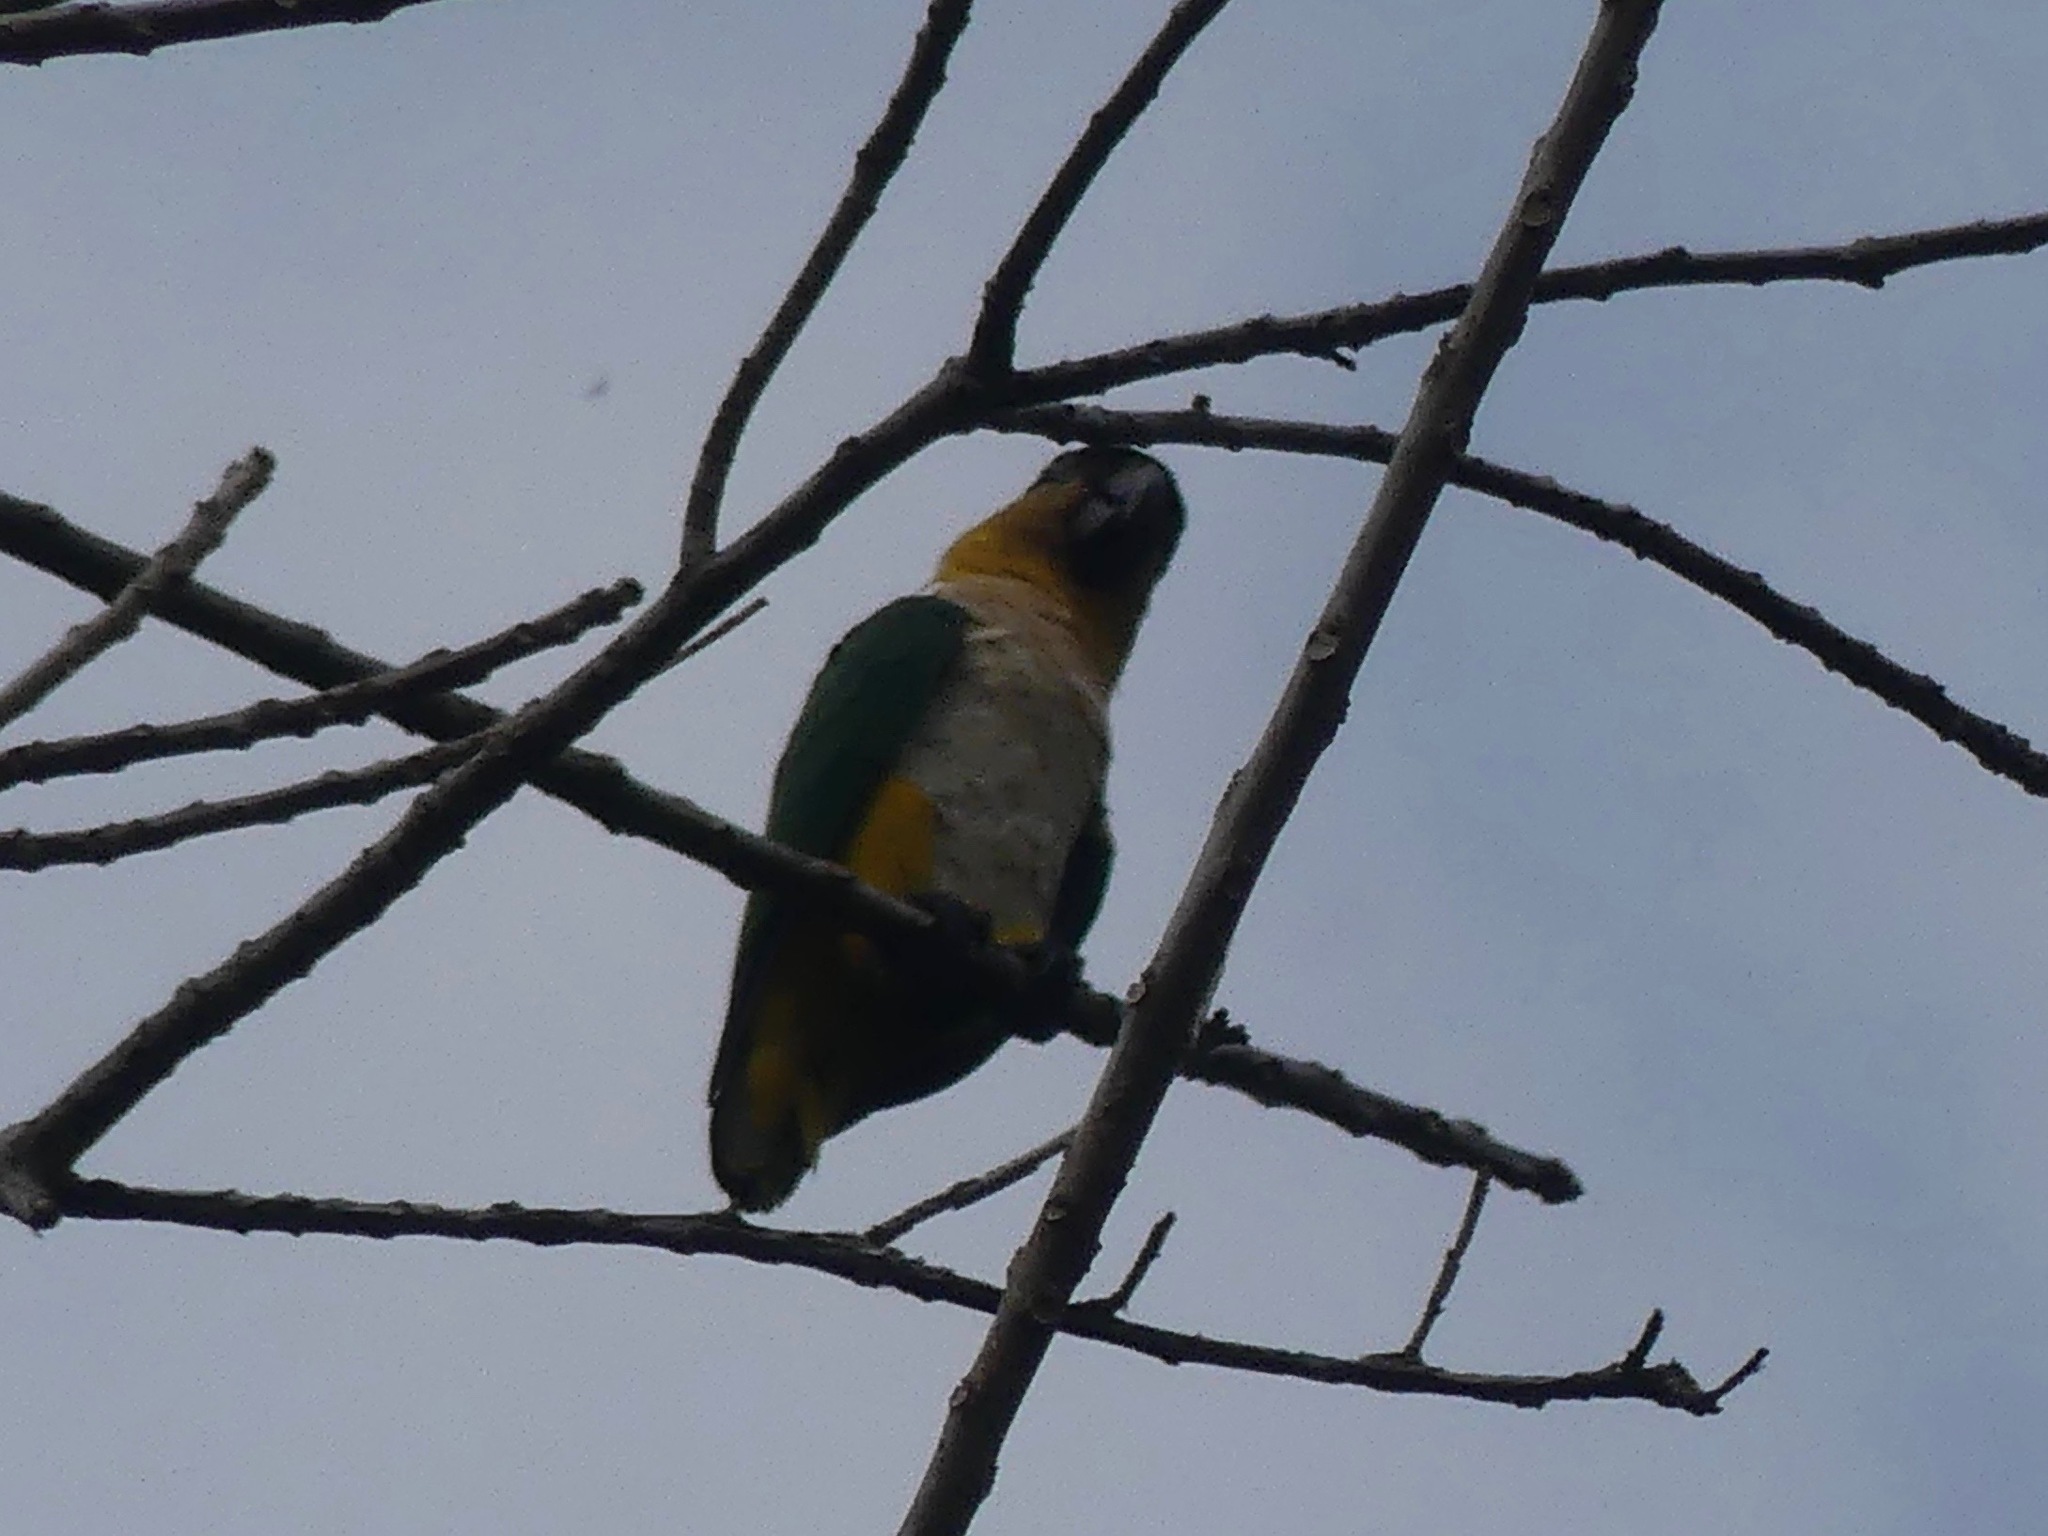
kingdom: Animalia
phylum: Chordata
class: Aves
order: Psittaciformes
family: Psittacidae
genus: Pionites
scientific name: Pionites melanocephalus
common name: Black-headed parrot
